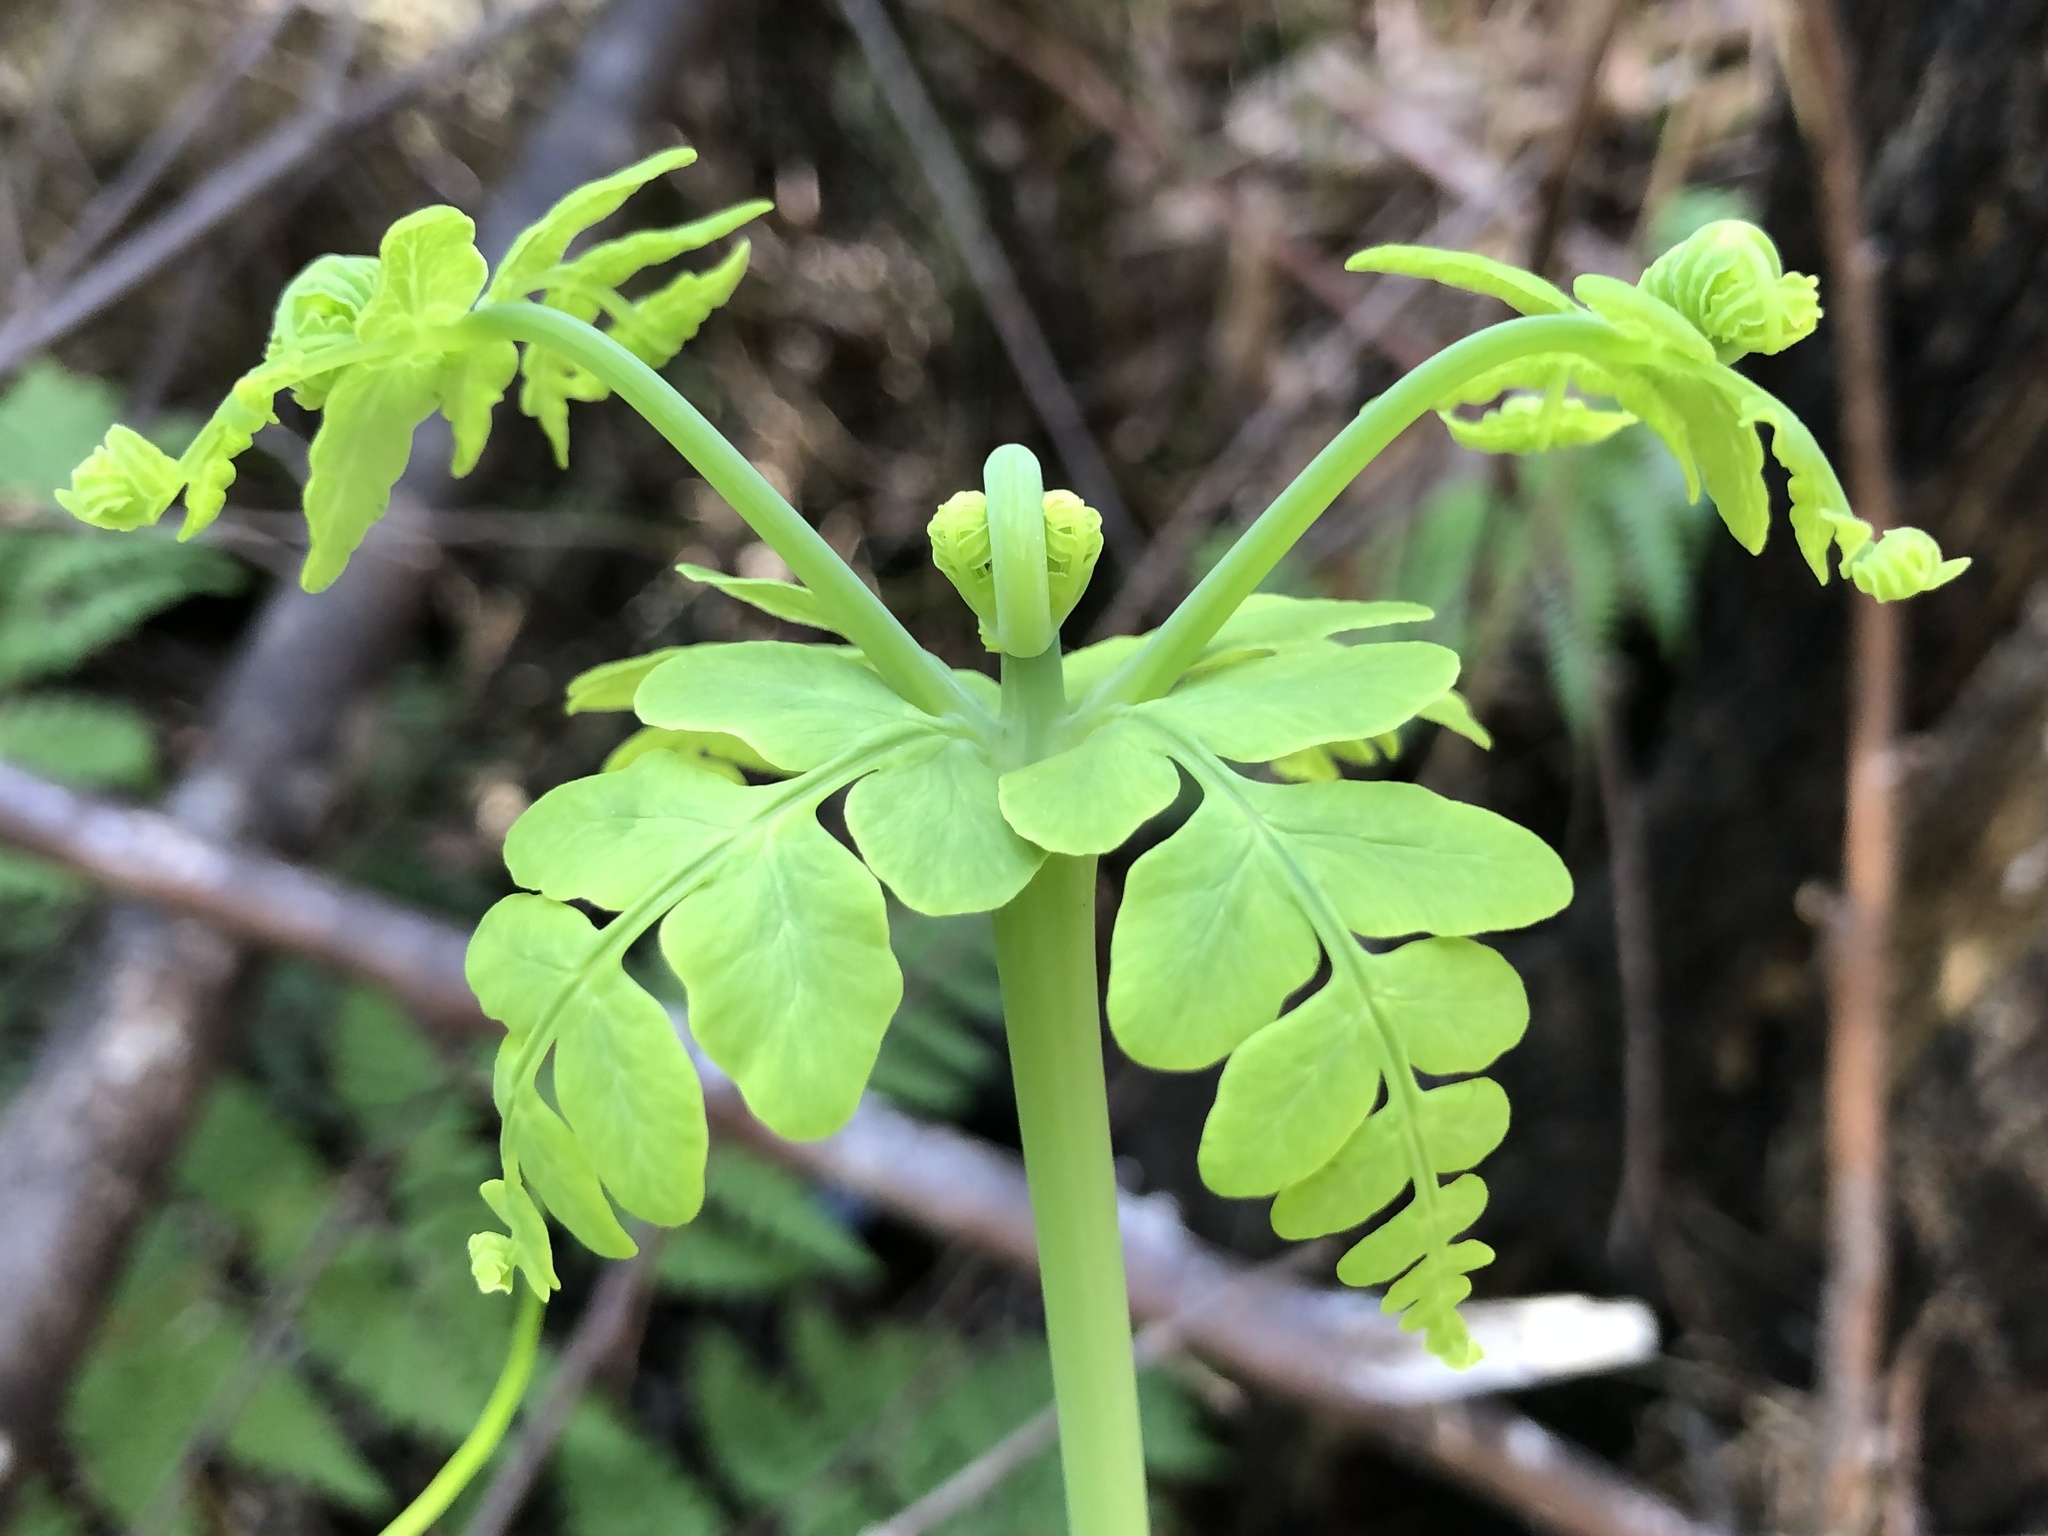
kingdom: Plantae
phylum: Tracheophyta
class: Polypodiopsida
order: Polypodiales
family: Dennstaedtiaceae
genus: Histiopteris
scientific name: Histiopteris incisa
